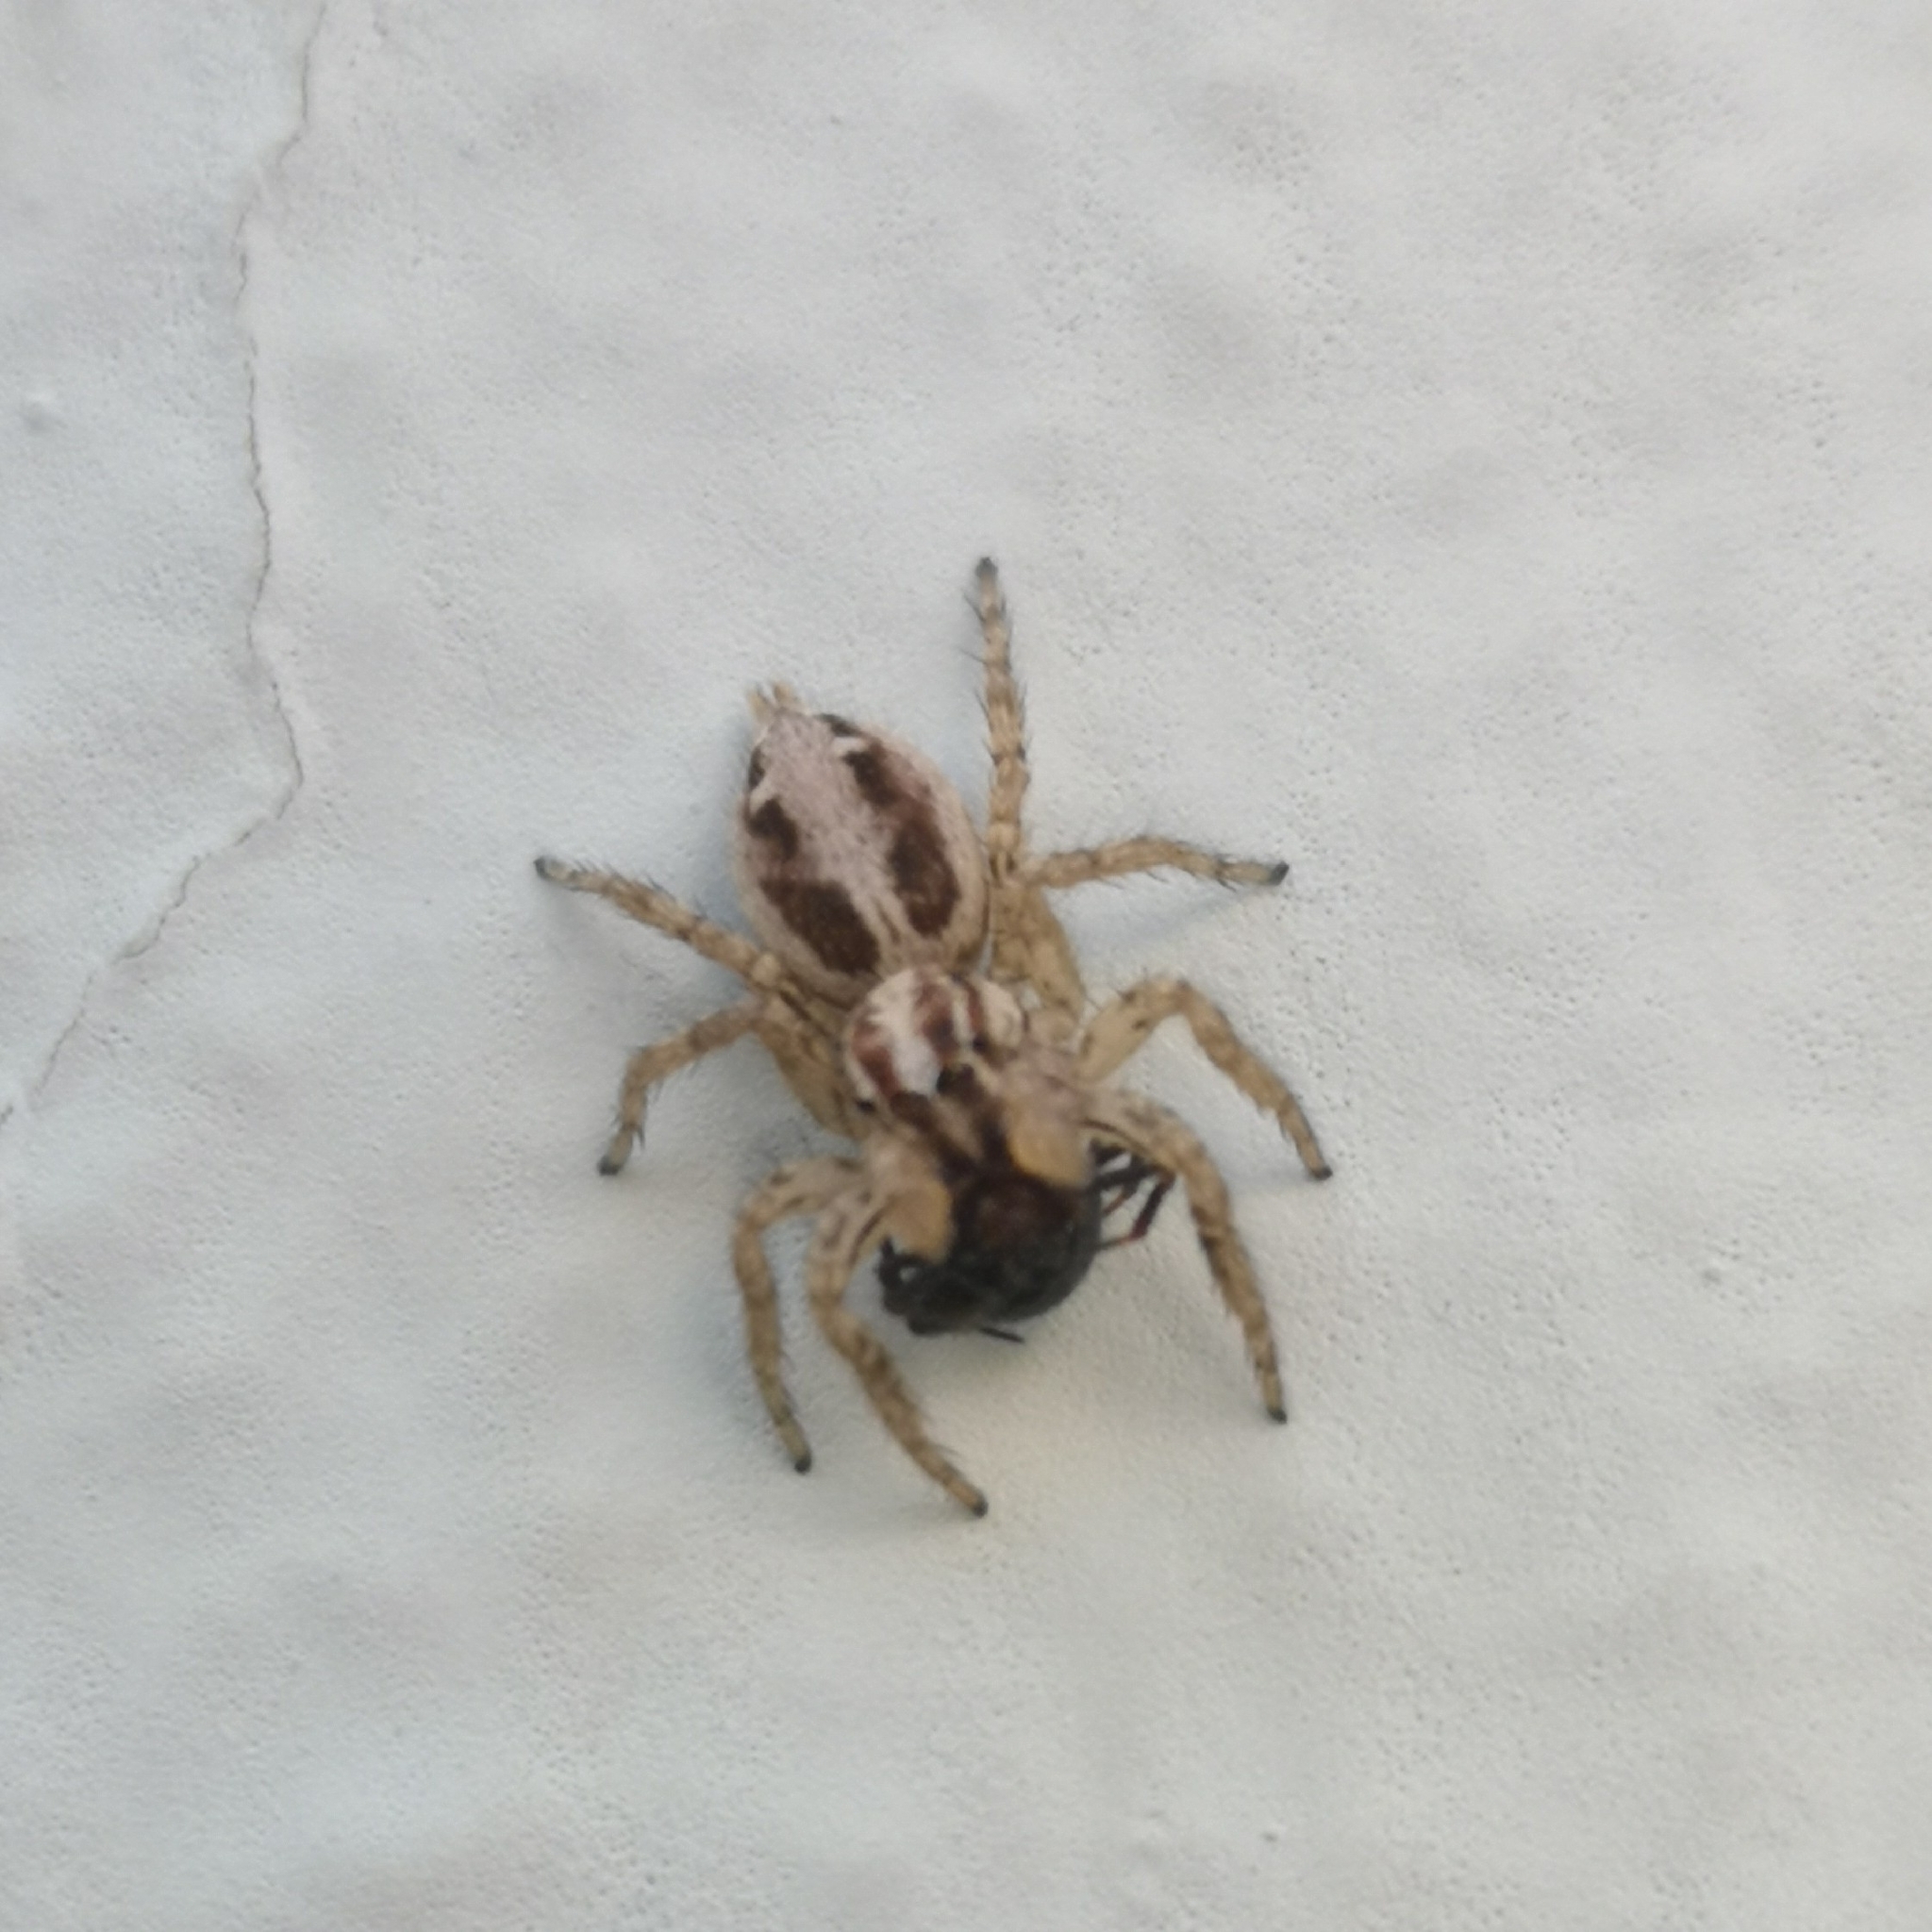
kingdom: Animalia
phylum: Arthropoda
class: Arachnida
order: Araneae
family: Salticidae
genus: Plexippus
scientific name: Plexippus paykulli
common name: Pantropical jumper
